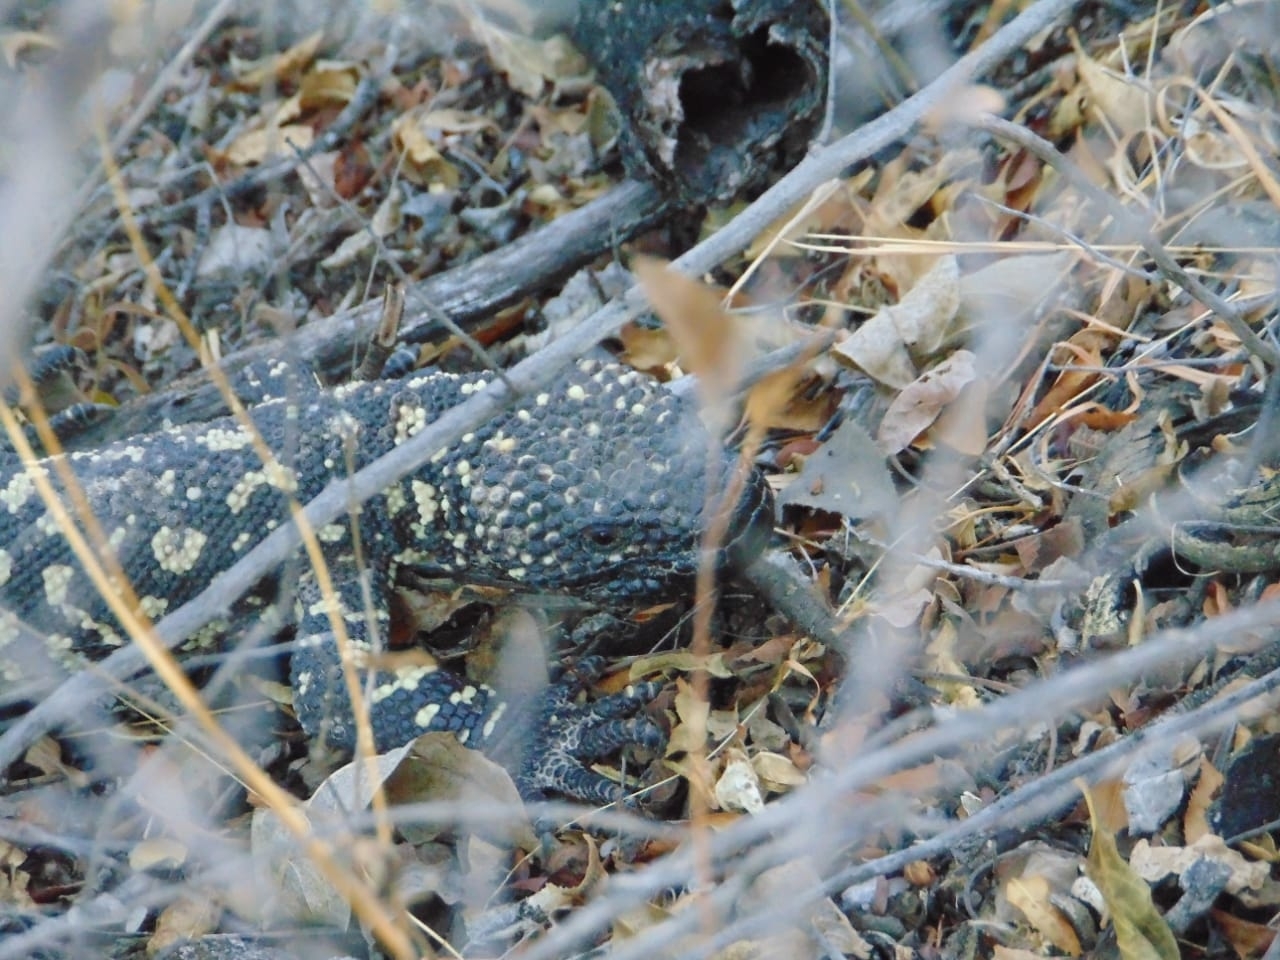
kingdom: Animalia
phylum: Chordata
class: Squamata
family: Helodermatidae
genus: Heloderma
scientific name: Heloderma horridum
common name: Mexican beaded lizard
